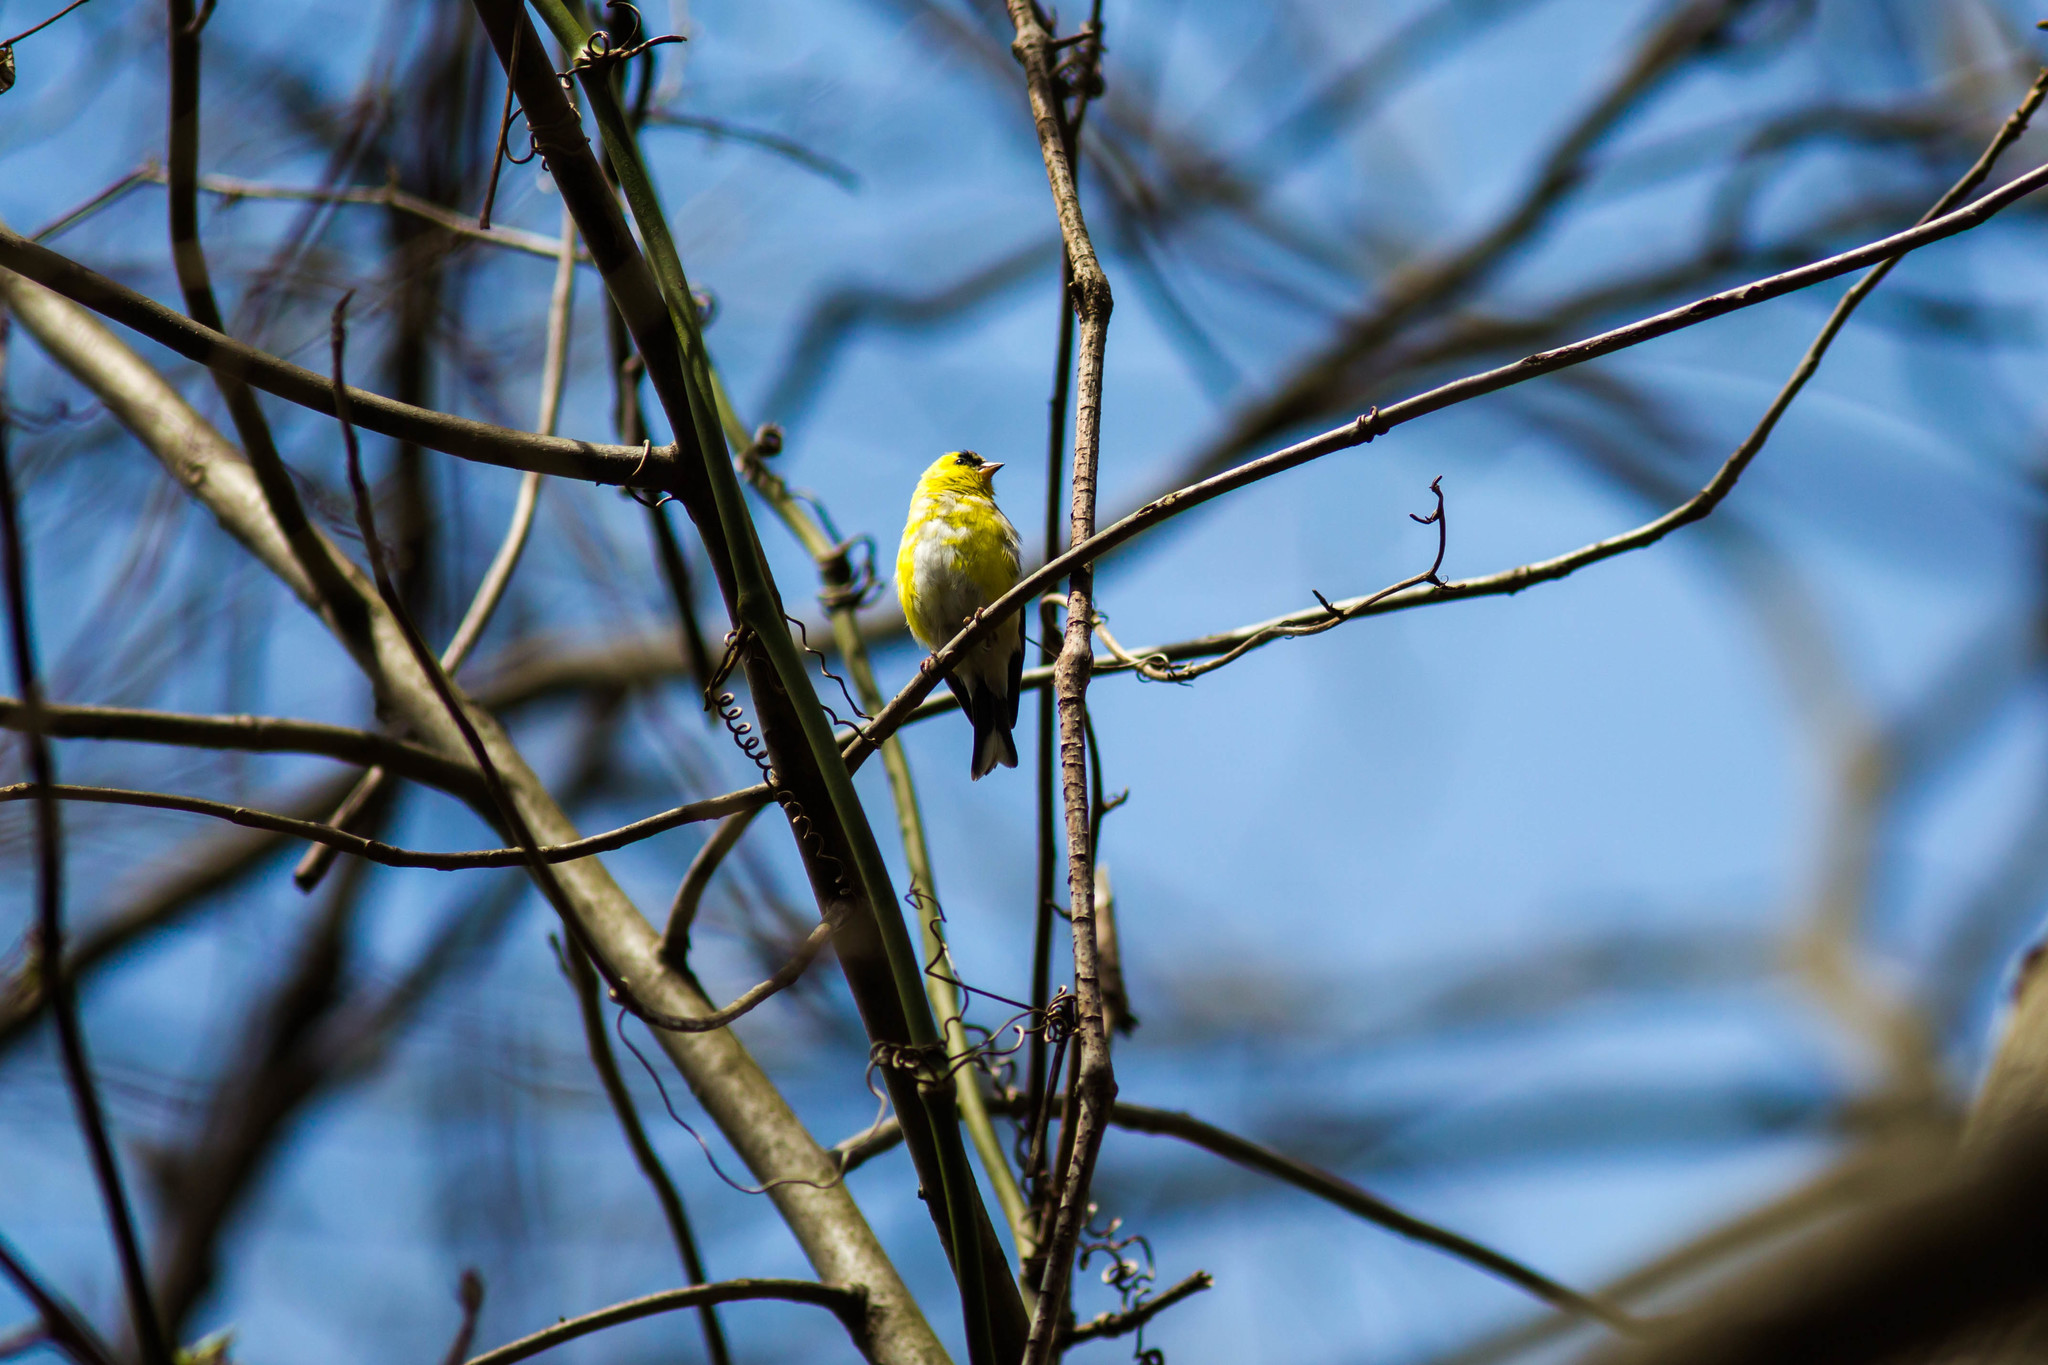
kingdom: Animalia
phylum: Chordata
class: Aves
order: Passeriformes
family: Fringillidae
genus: Spinus
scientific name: Spinus tristis
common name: American goldfinch
